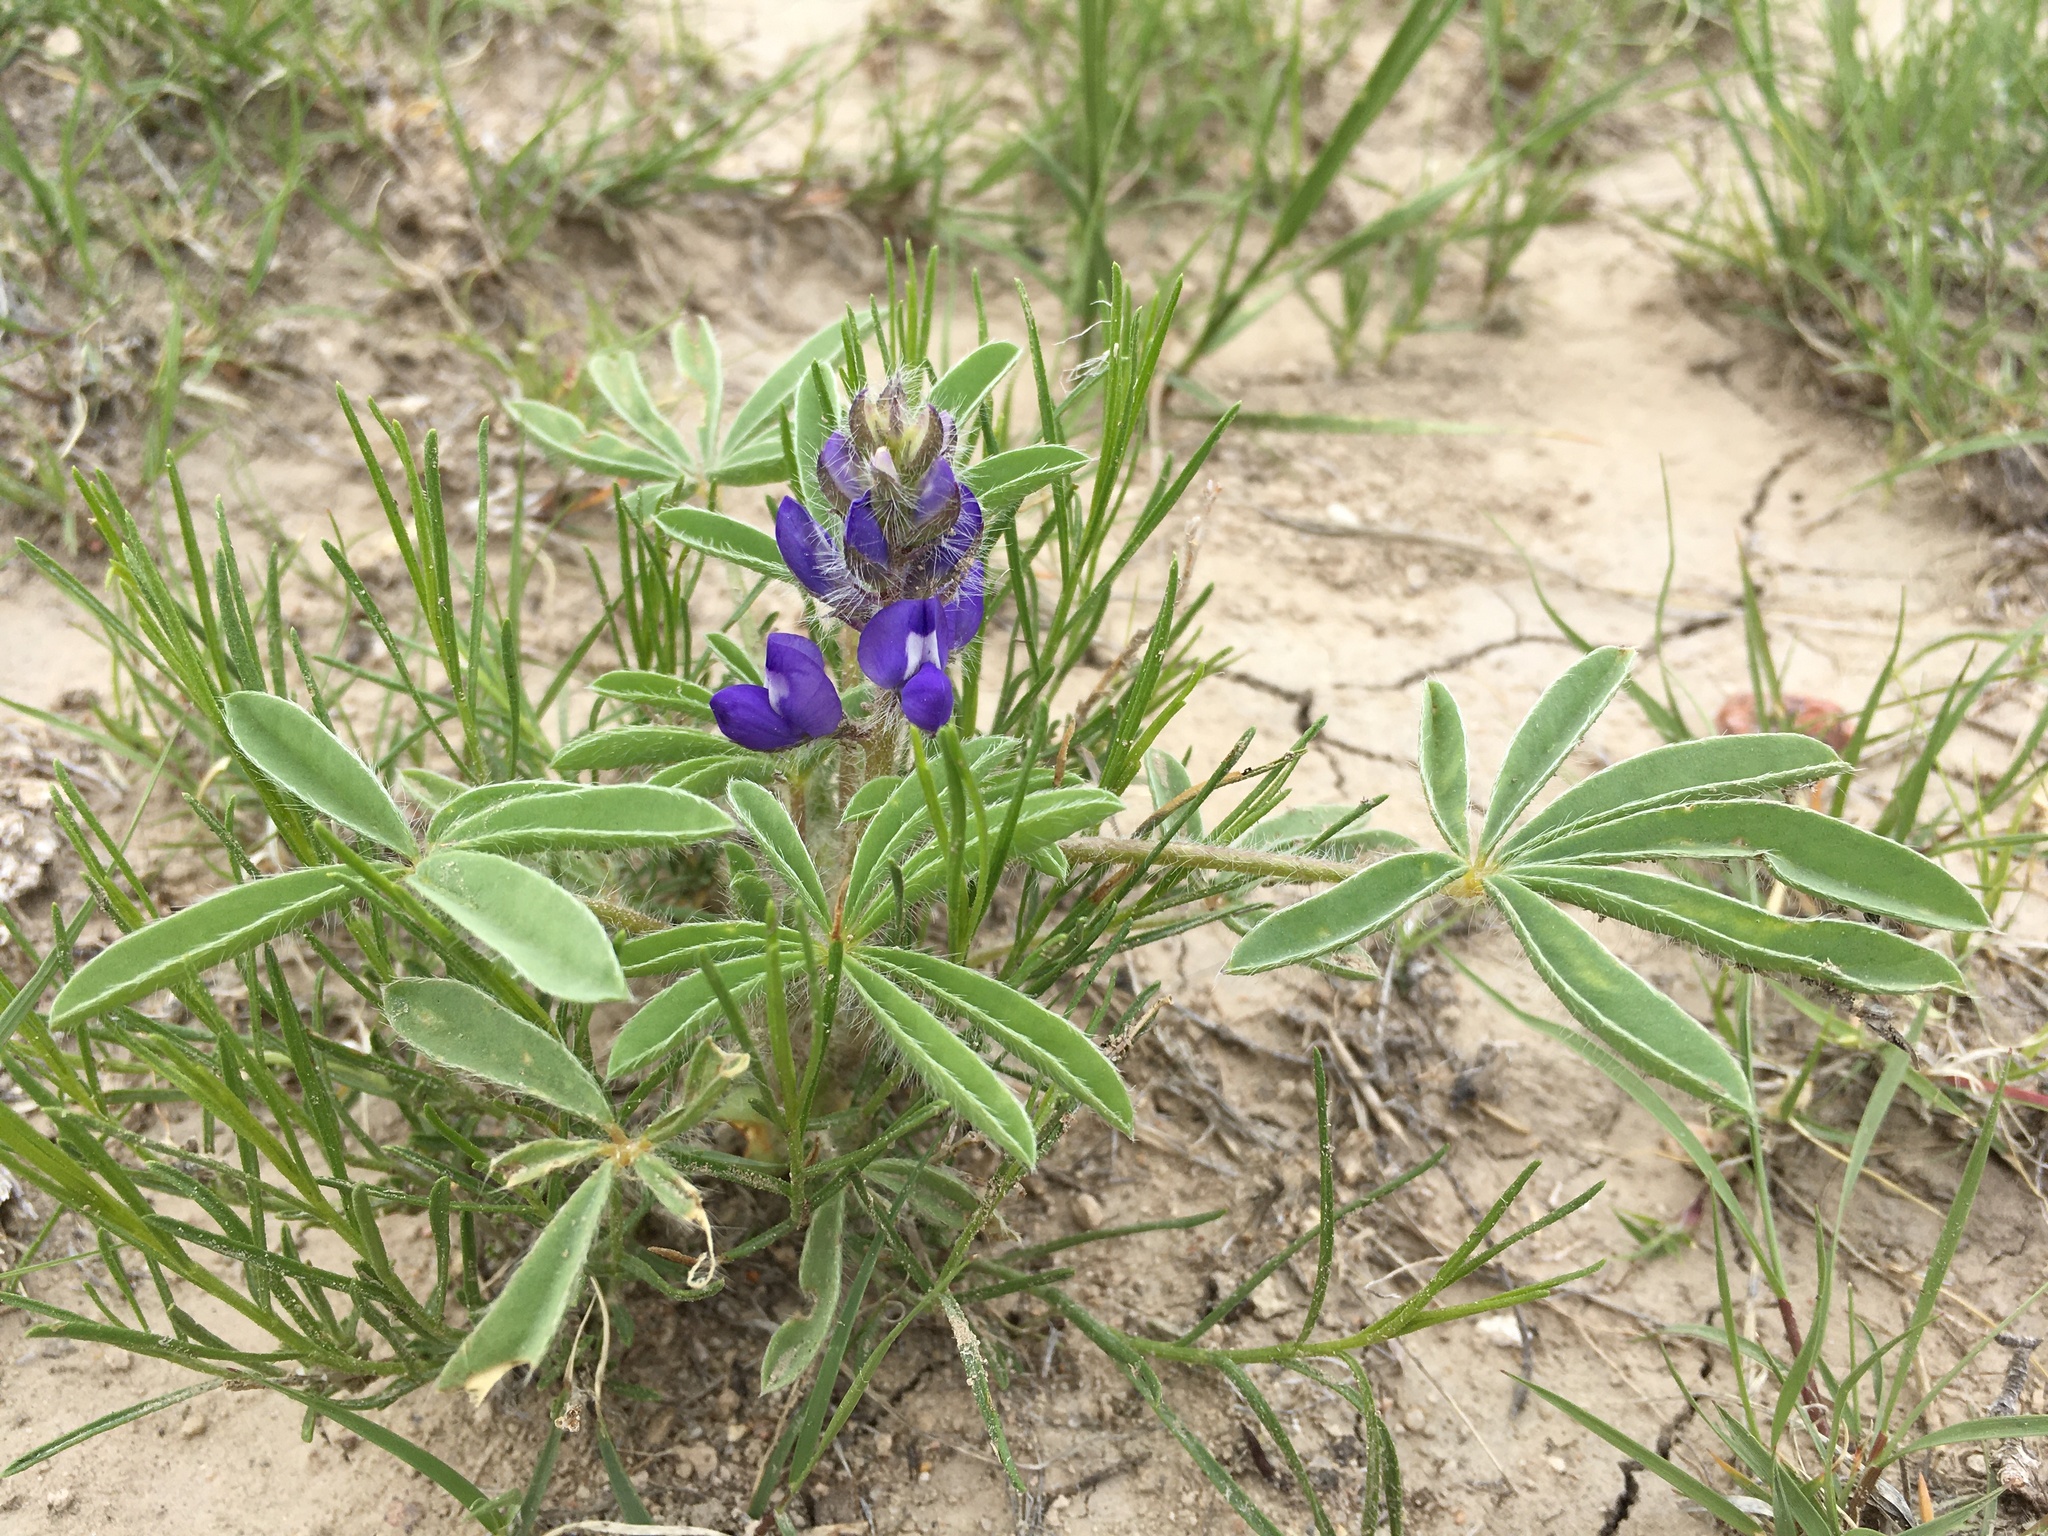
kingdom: Plantae
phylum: Tracheophyta
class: Magnoliopsida
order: Fabales
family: Fabaceae
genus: Lupinus
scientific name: Lupinus pusillus
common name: Low lupine
